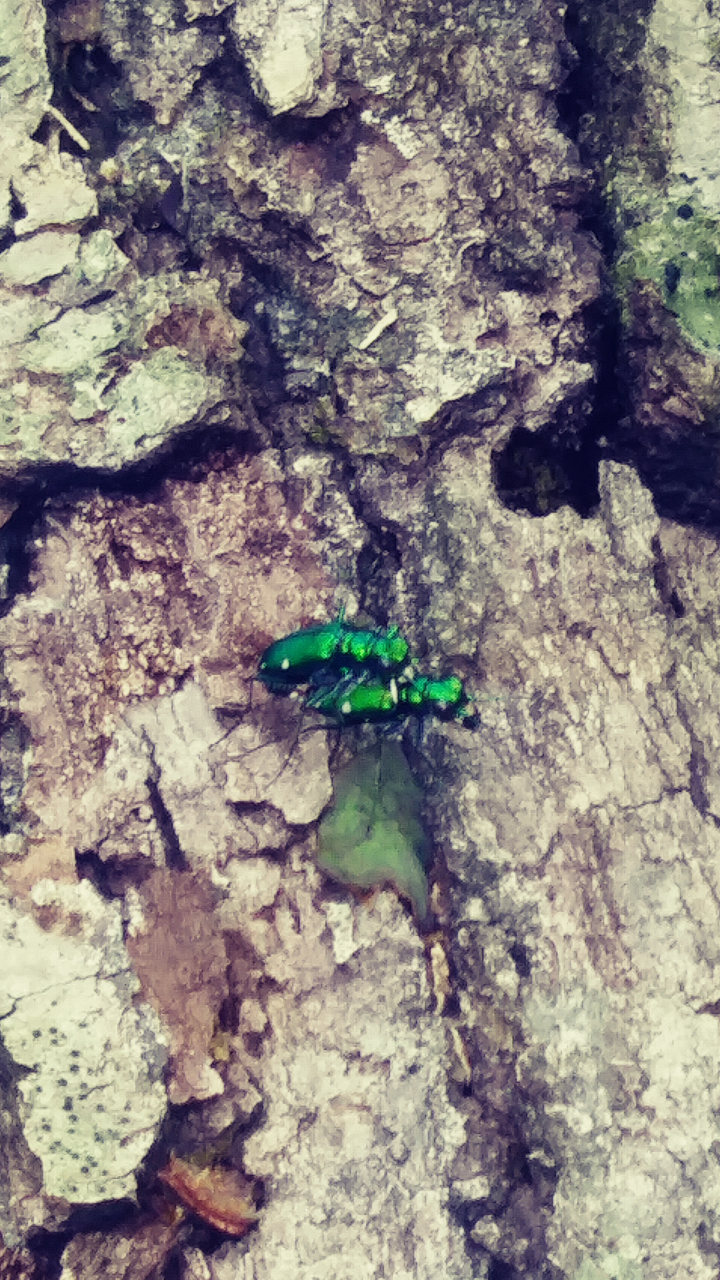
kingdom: Animalia
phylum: Arthropoda
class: Insecta
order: Coleoptera
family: Carabidae
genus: Cicindela
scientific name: Cicindela sexguttata
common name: Six-spotted tiger beetle
